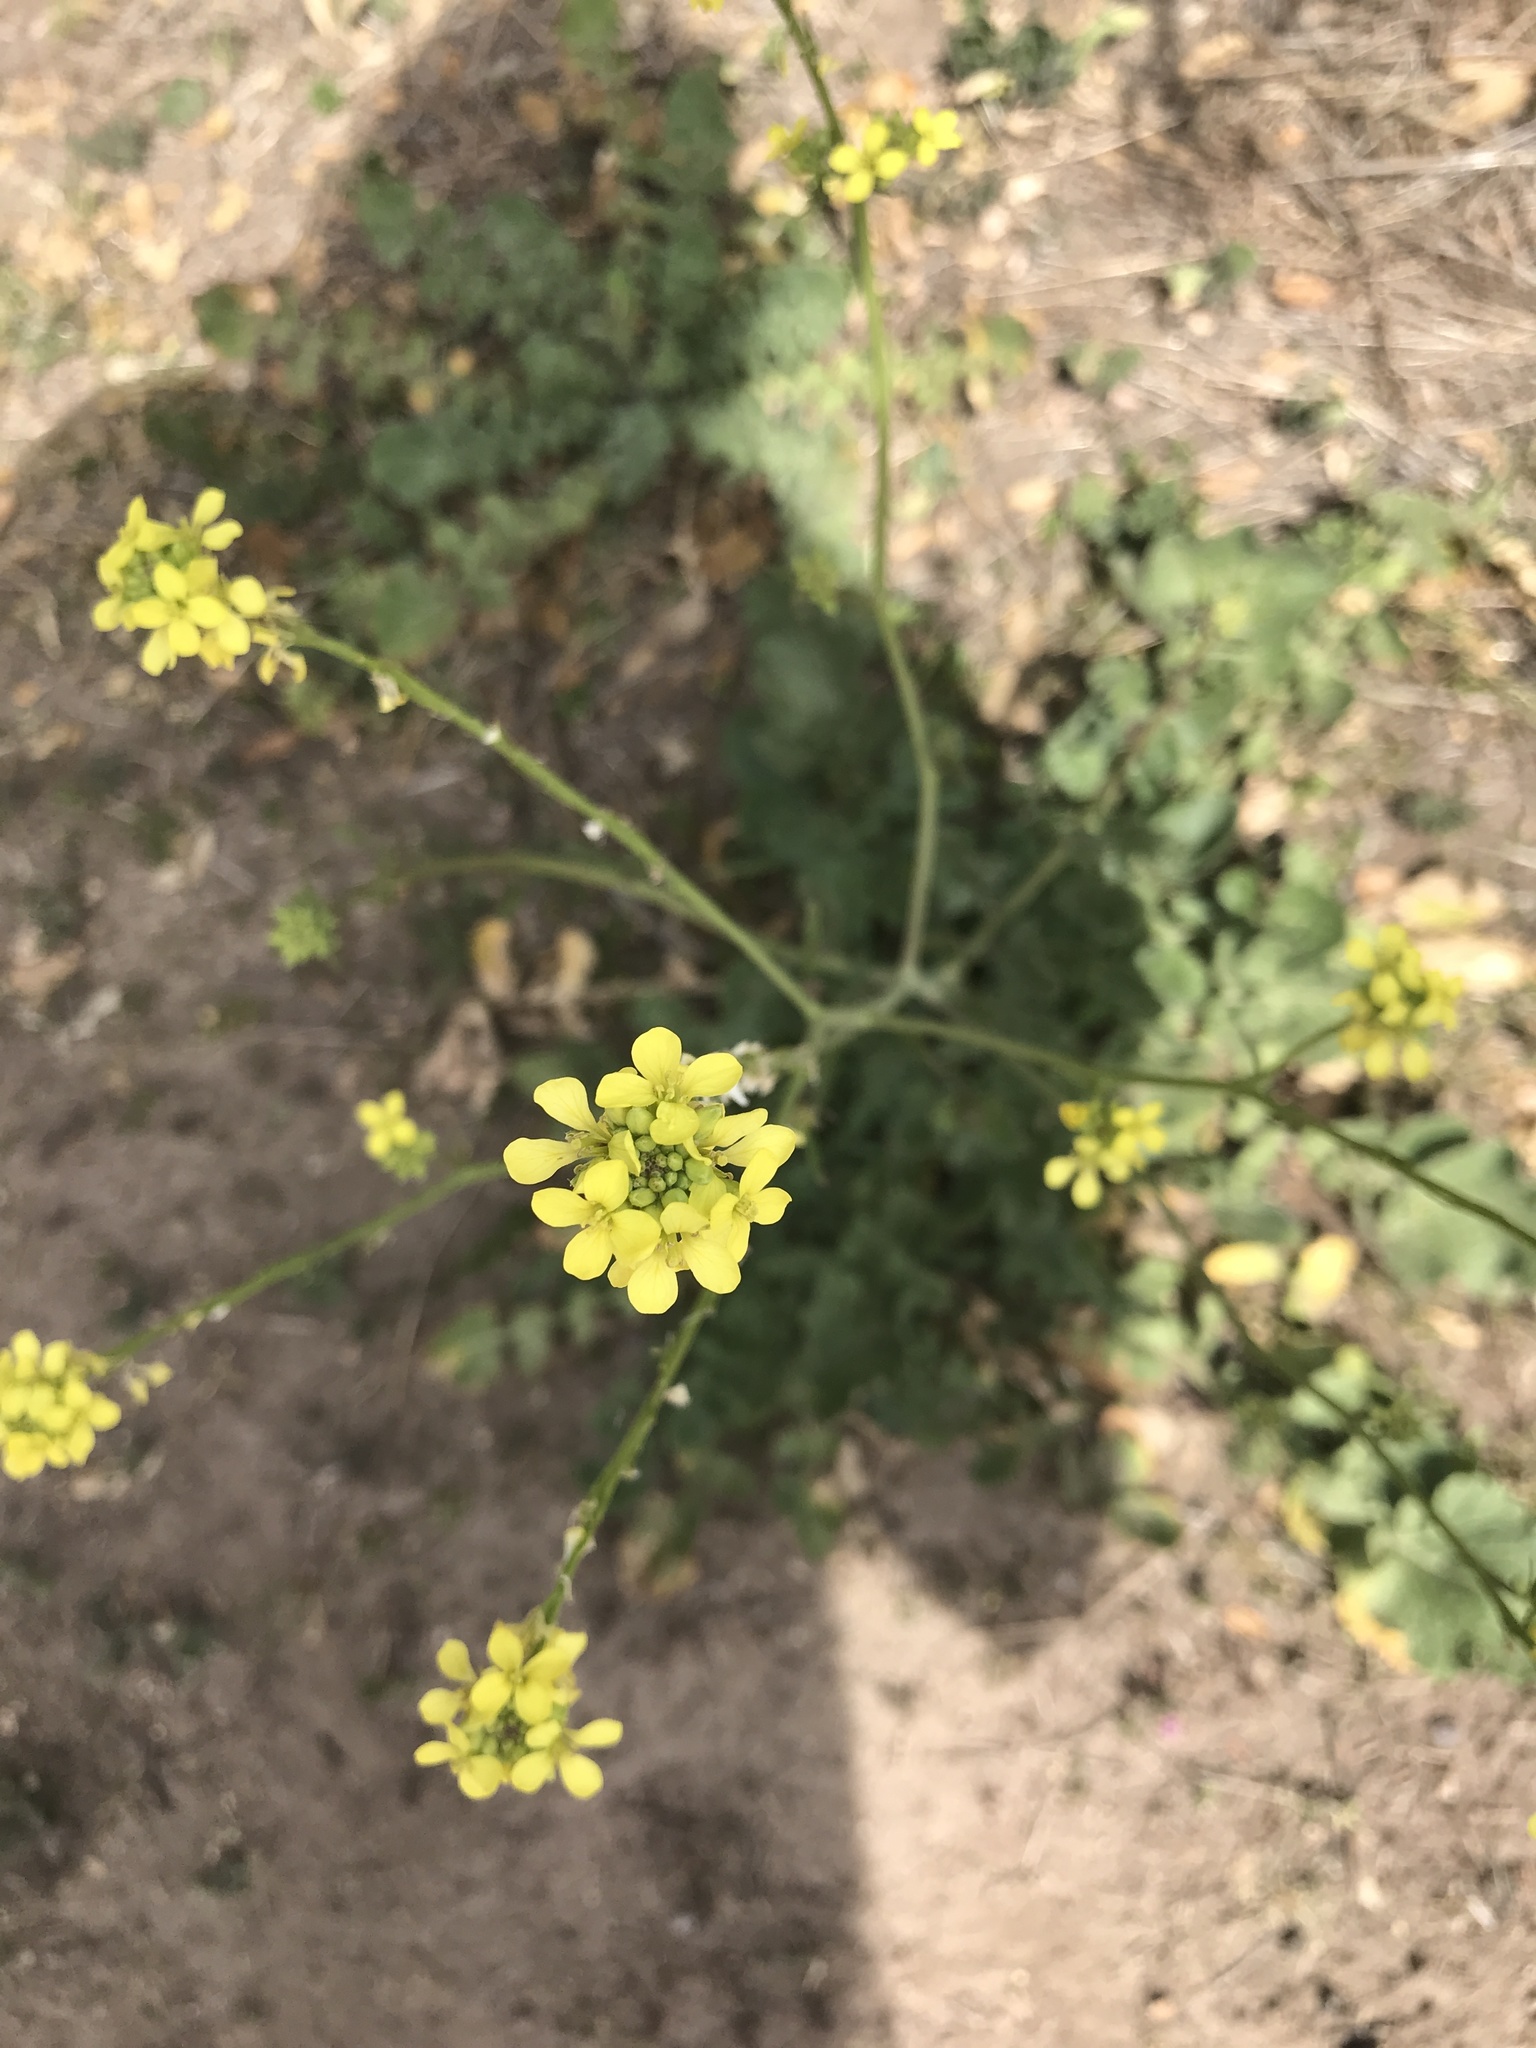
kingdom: Plantae
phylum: Tracheophyta
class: Magnoliopsida
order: Brassicales
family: Brassicaceae
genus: Hirschfeldia
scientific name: Hirschfeldia incana
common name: Hoary mustard
